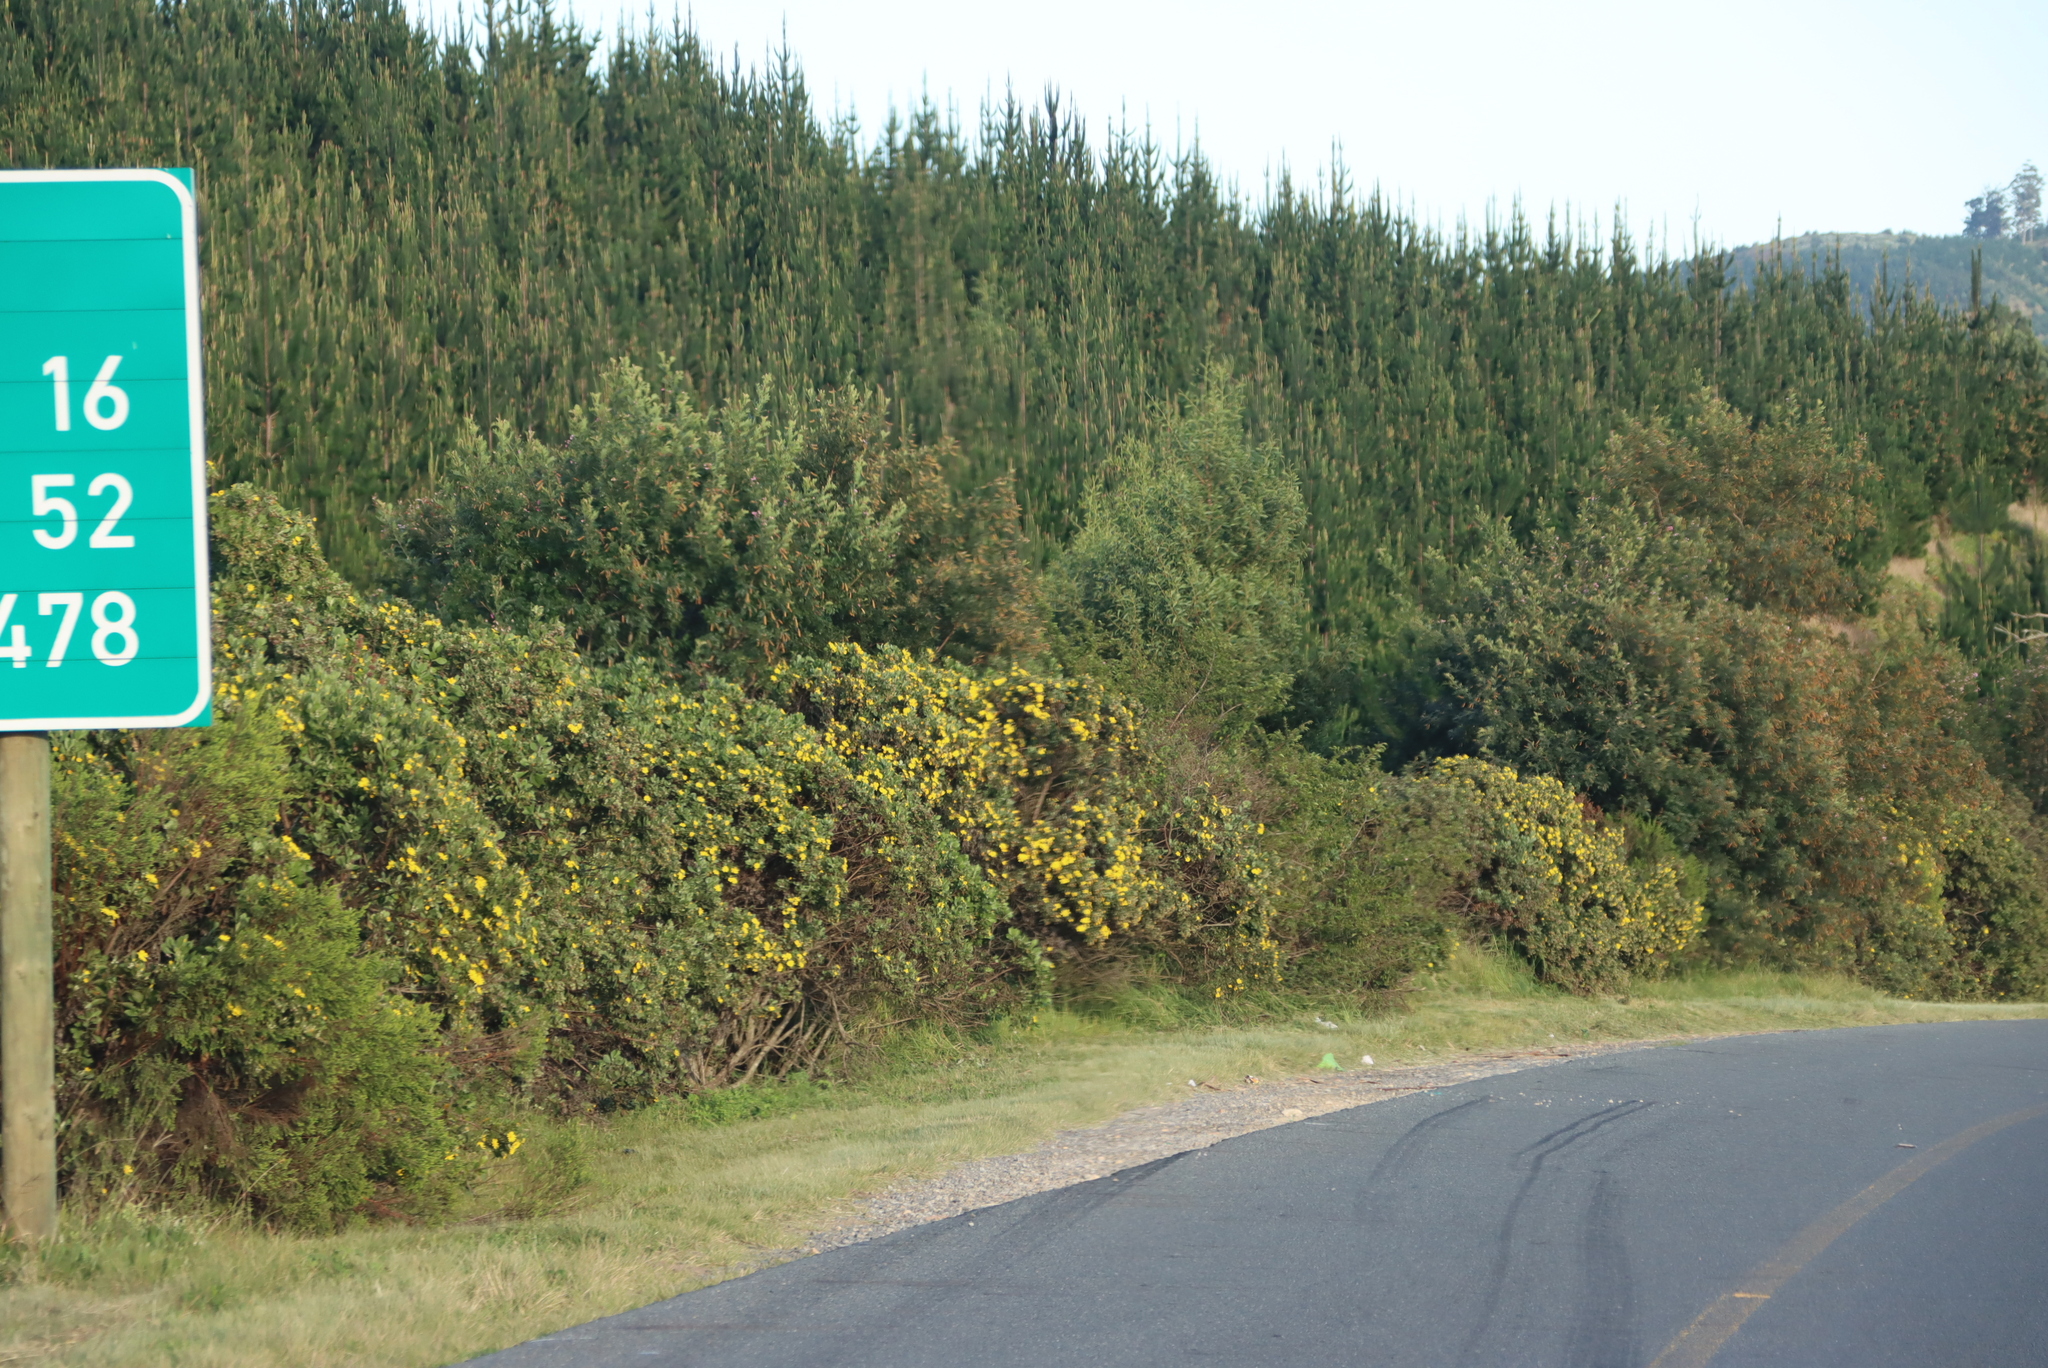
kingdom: Plantae
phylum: Tracheophyta
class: Magnoliopsida
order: Asterales
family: Asteraceae
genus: Osteospermum
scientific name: Osteospermum moniliferum
